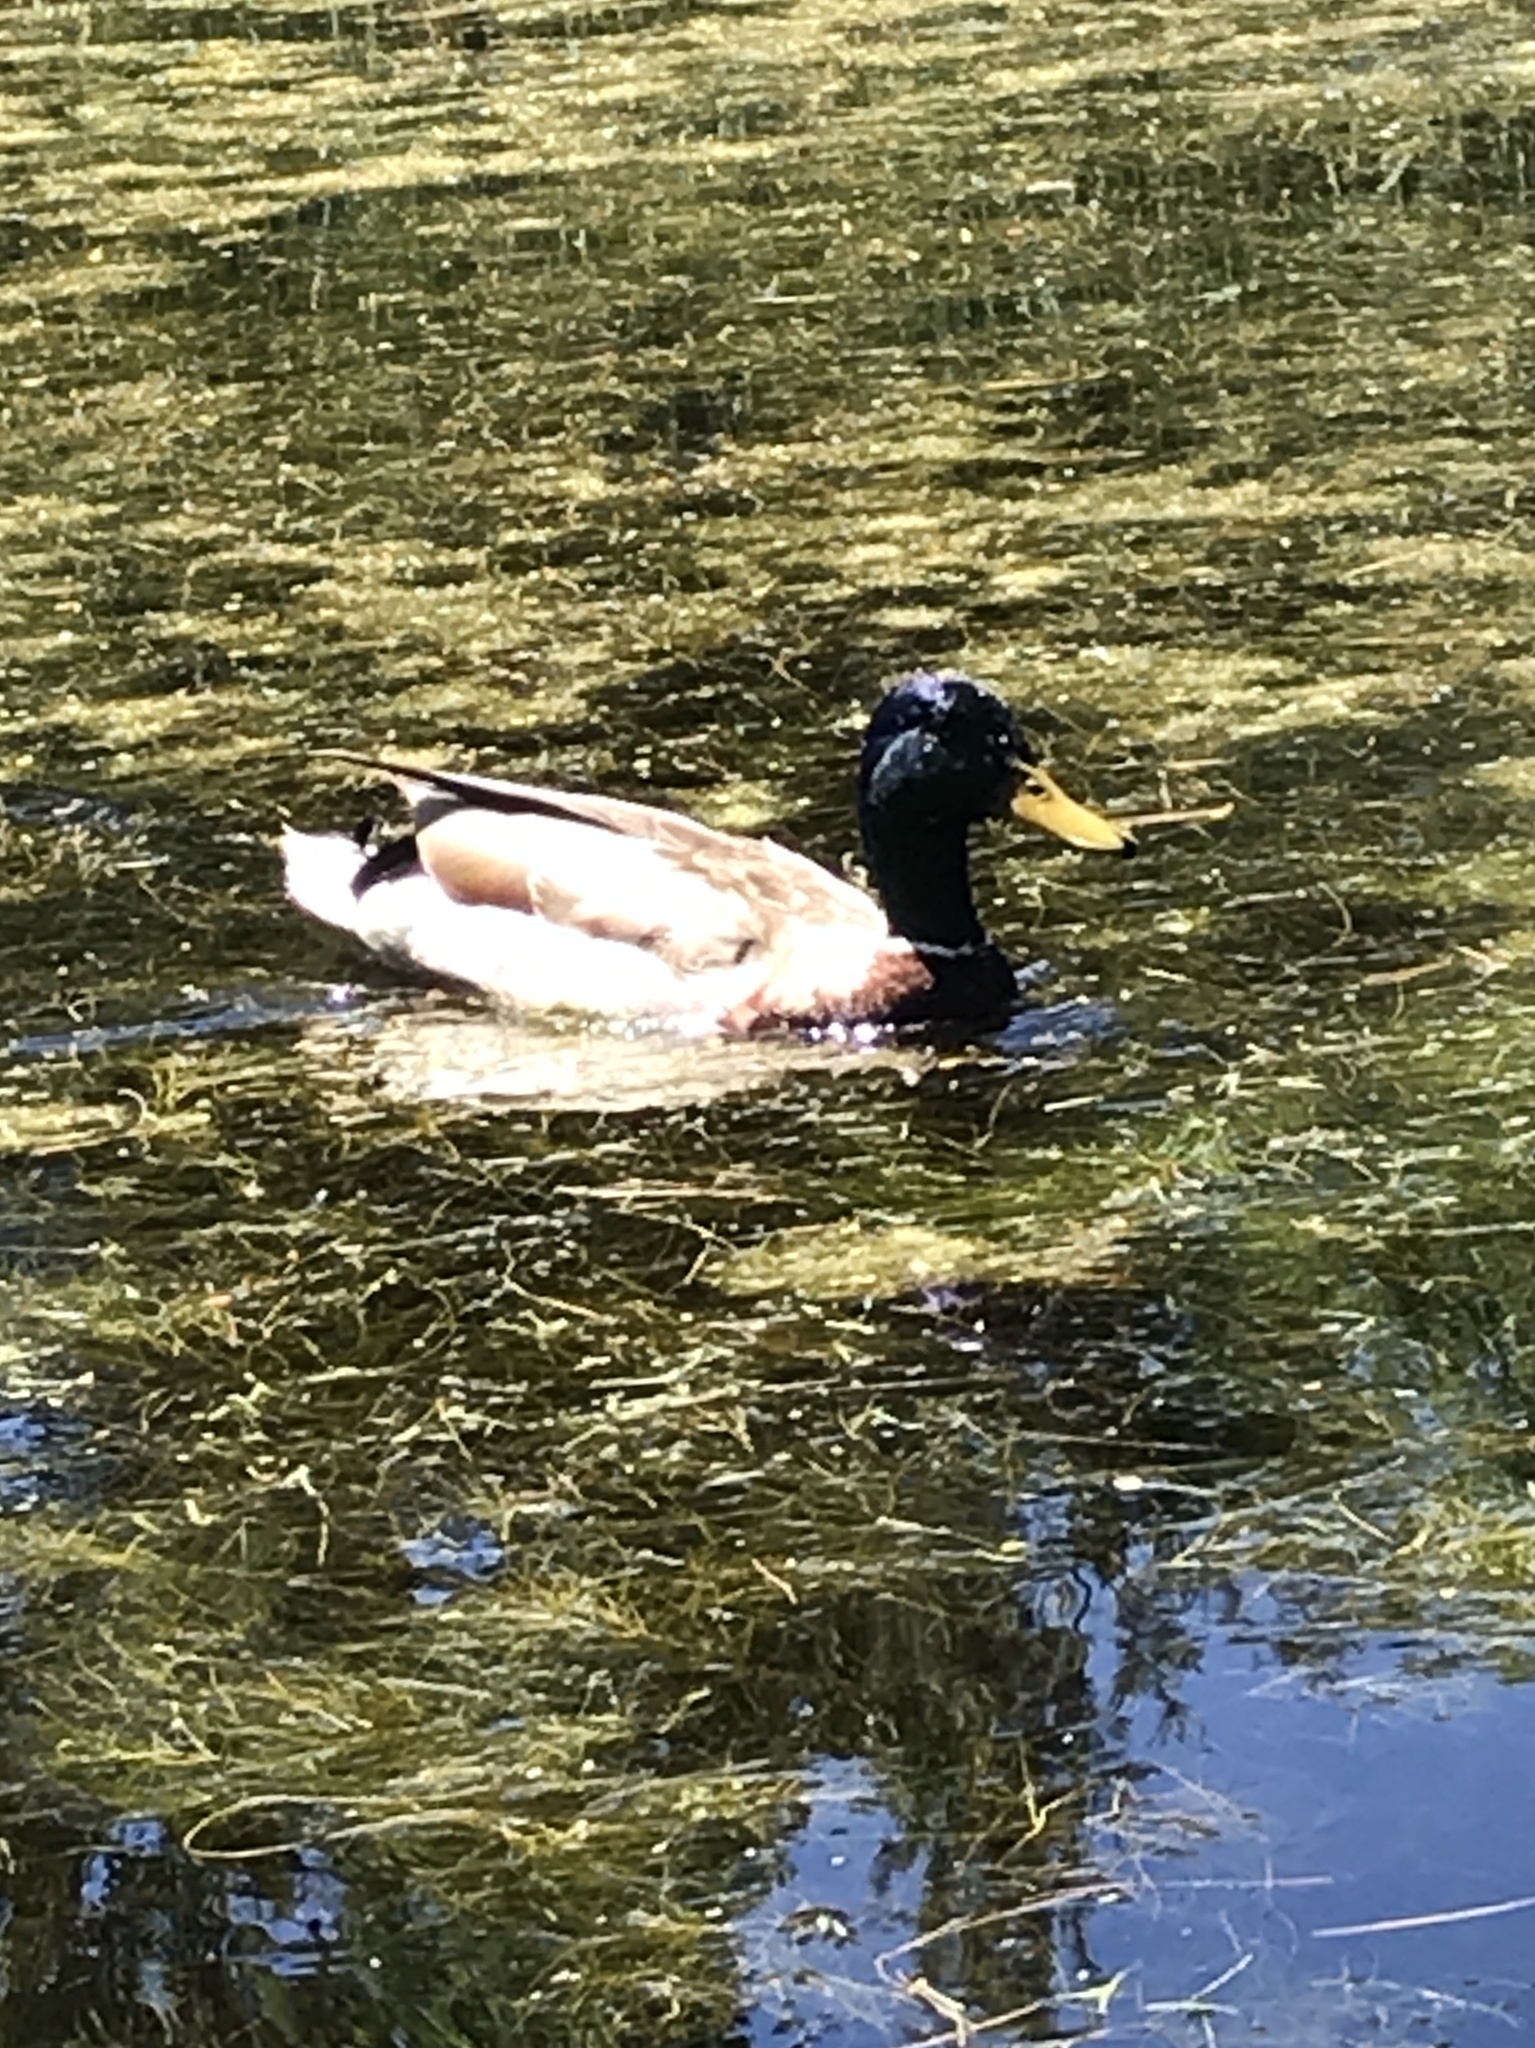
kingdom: Animalia
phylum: Chordata
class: Aves
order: Anseriformes
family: Anatidae
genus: Anas
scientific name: Anas platyrhynchos
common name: Mallard
